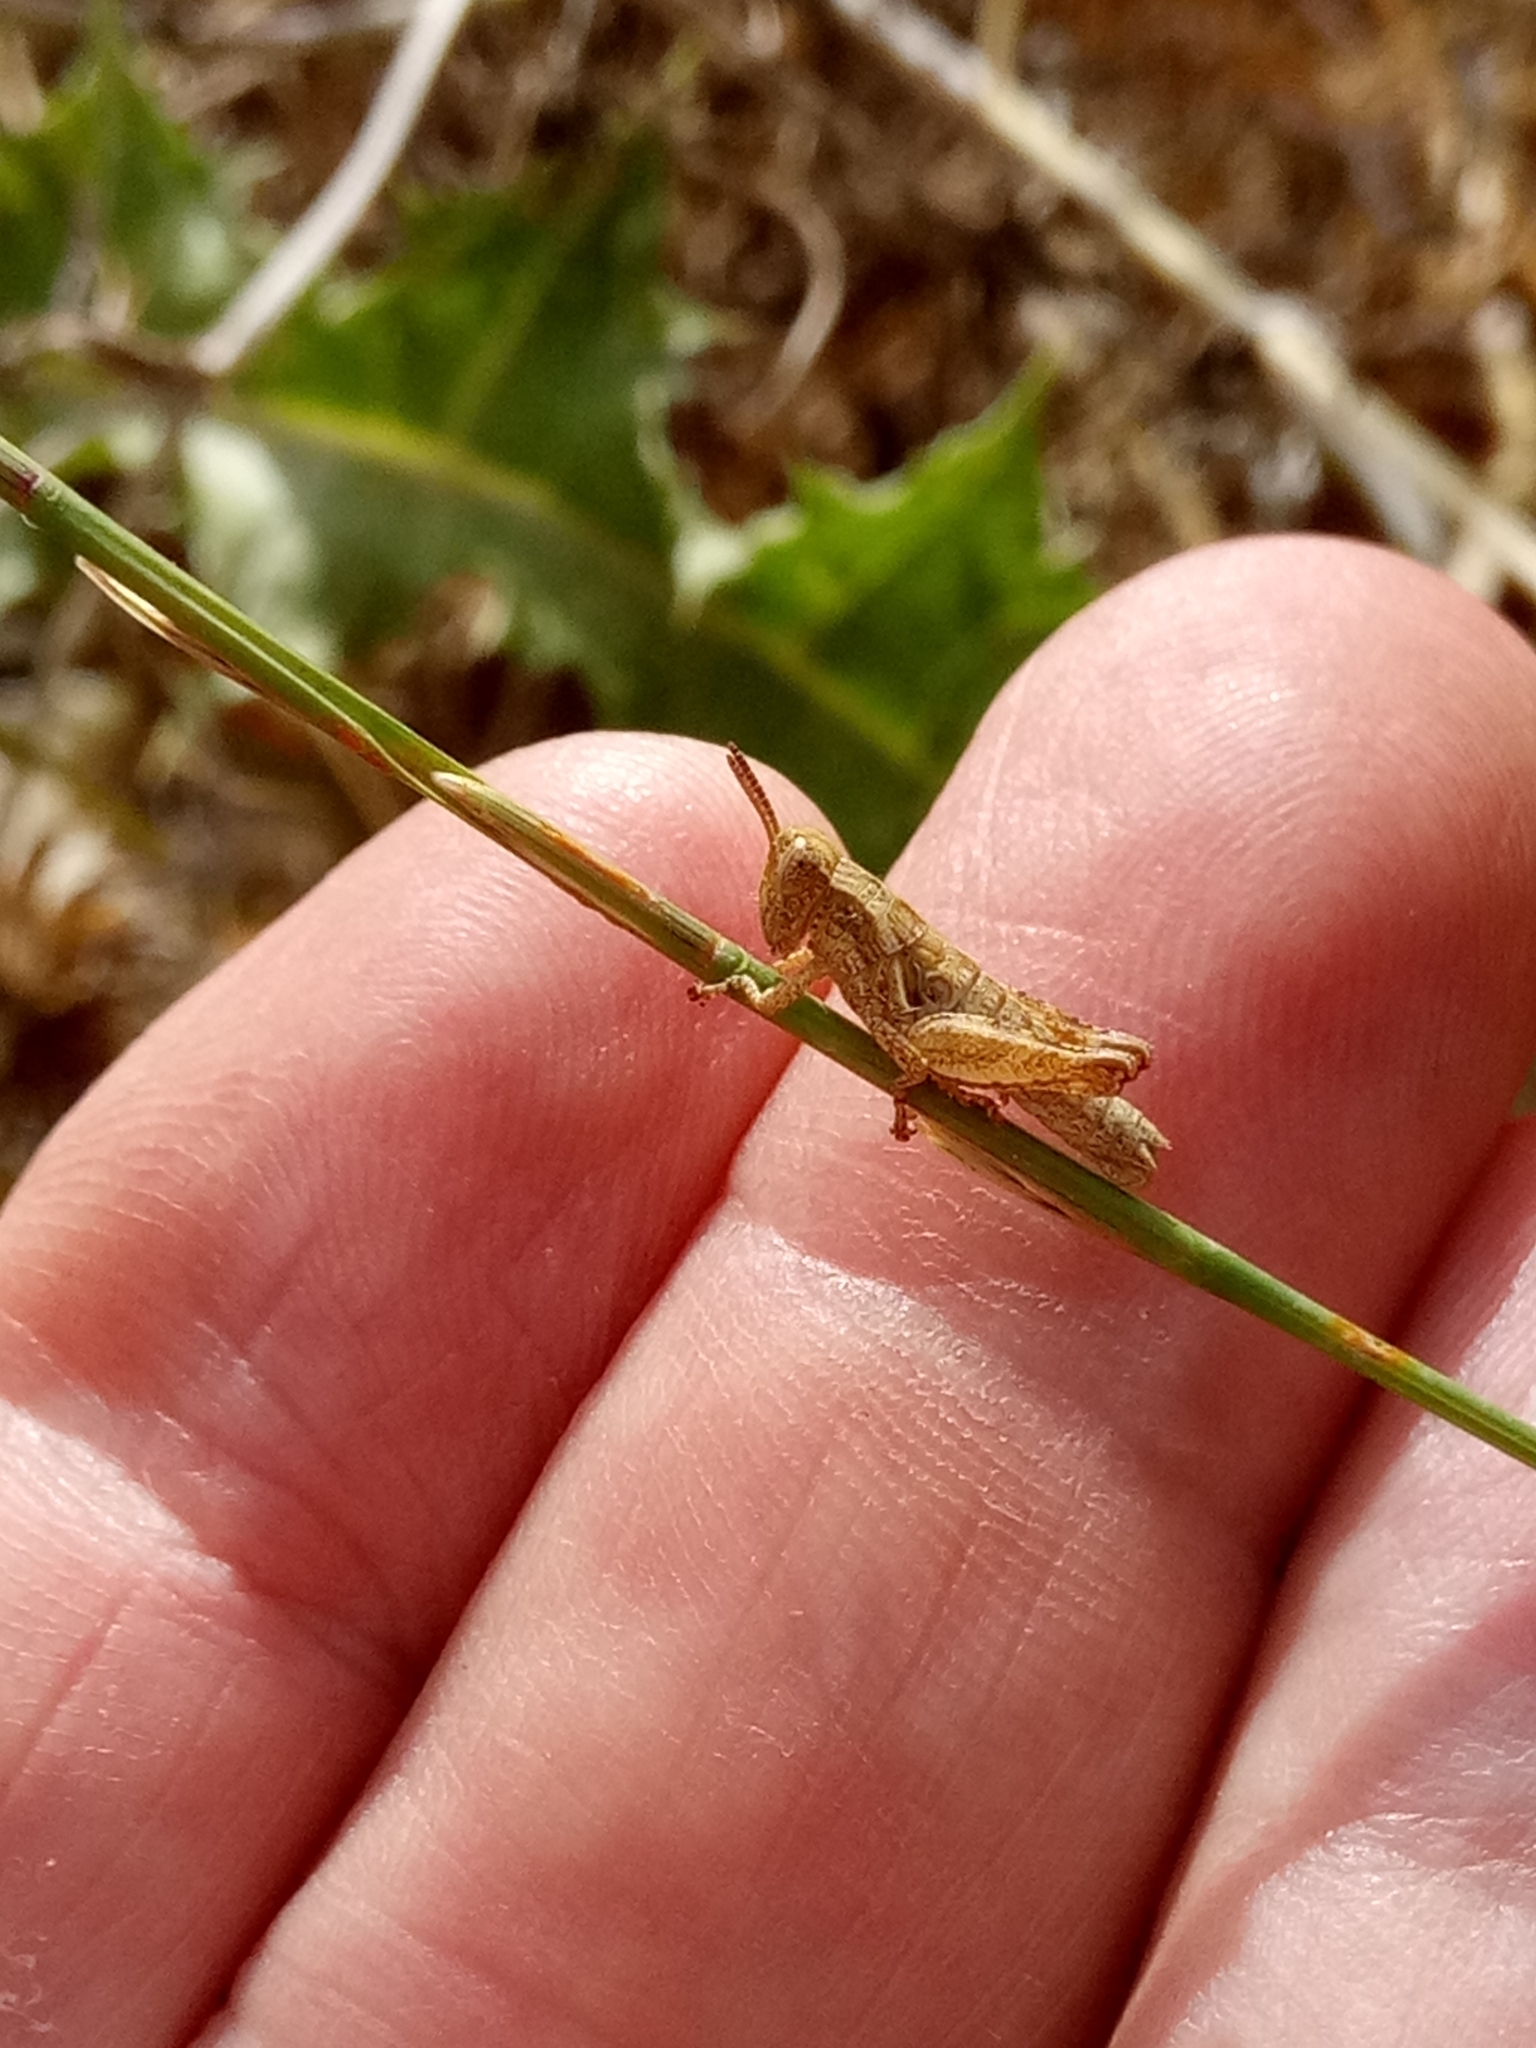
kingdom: Animalia
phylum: Arthropoda
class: Insecta
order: Orthoptera
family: Acrididae
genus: Pezotettix
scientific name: Pezotettix giornae
